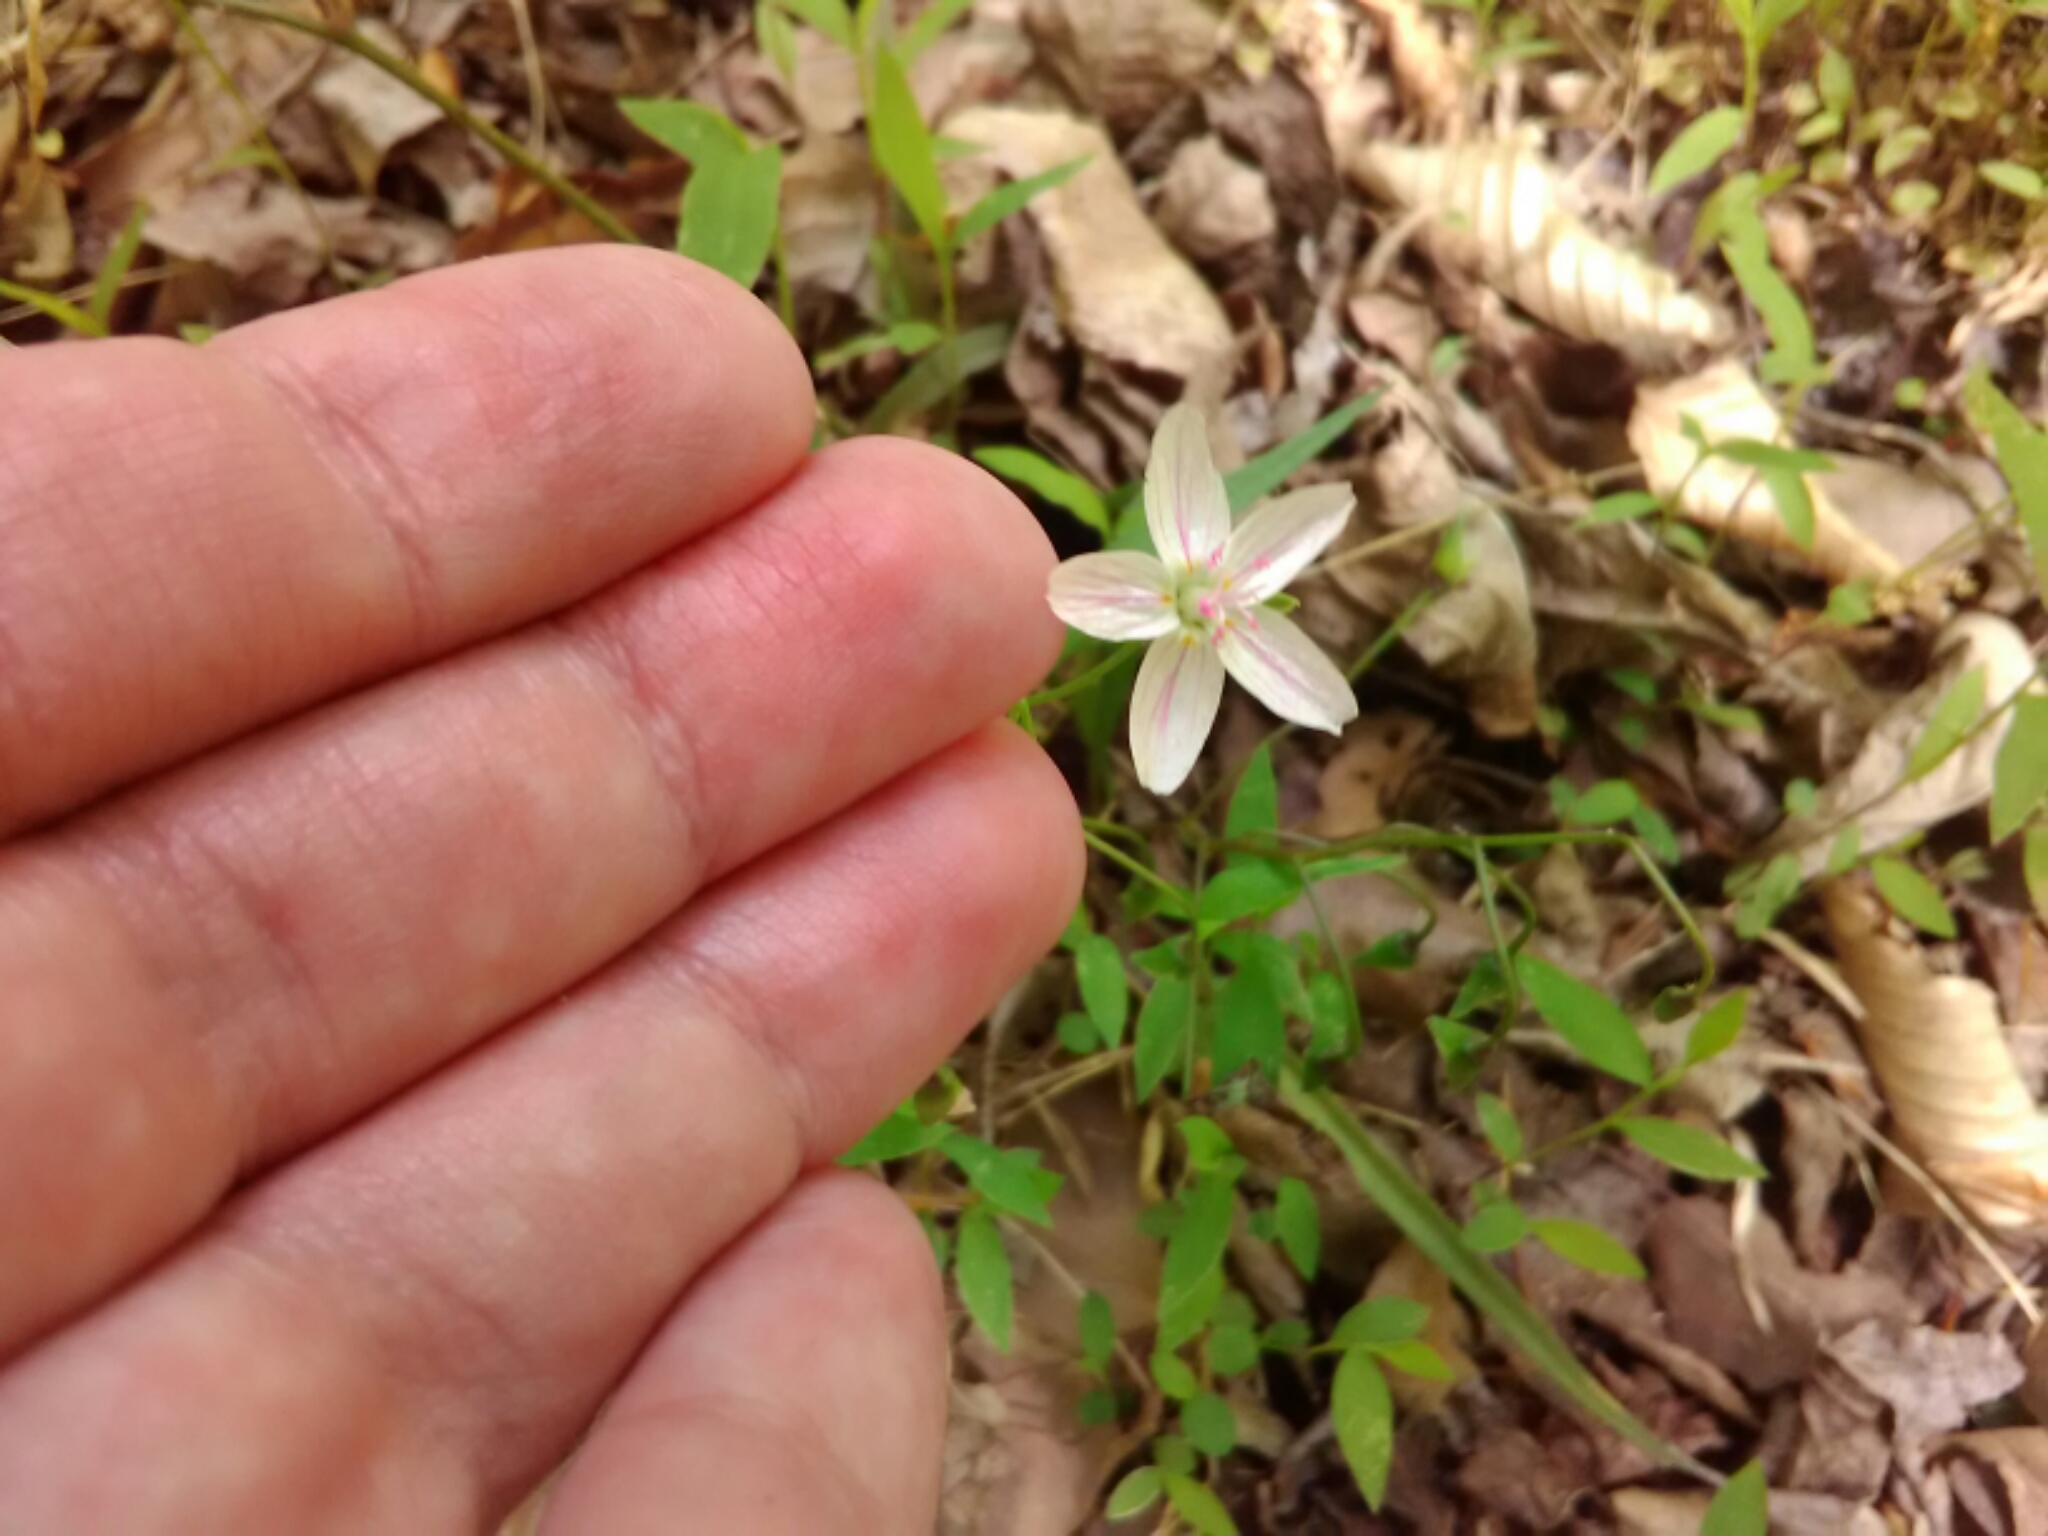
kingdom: Plantae
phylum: Tracheophyta
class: Magnoliopsida
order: Caryophyllales
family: Montiaceae
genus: Claytonia
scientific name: Claytonia virginica
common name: Virginia springbeauty
